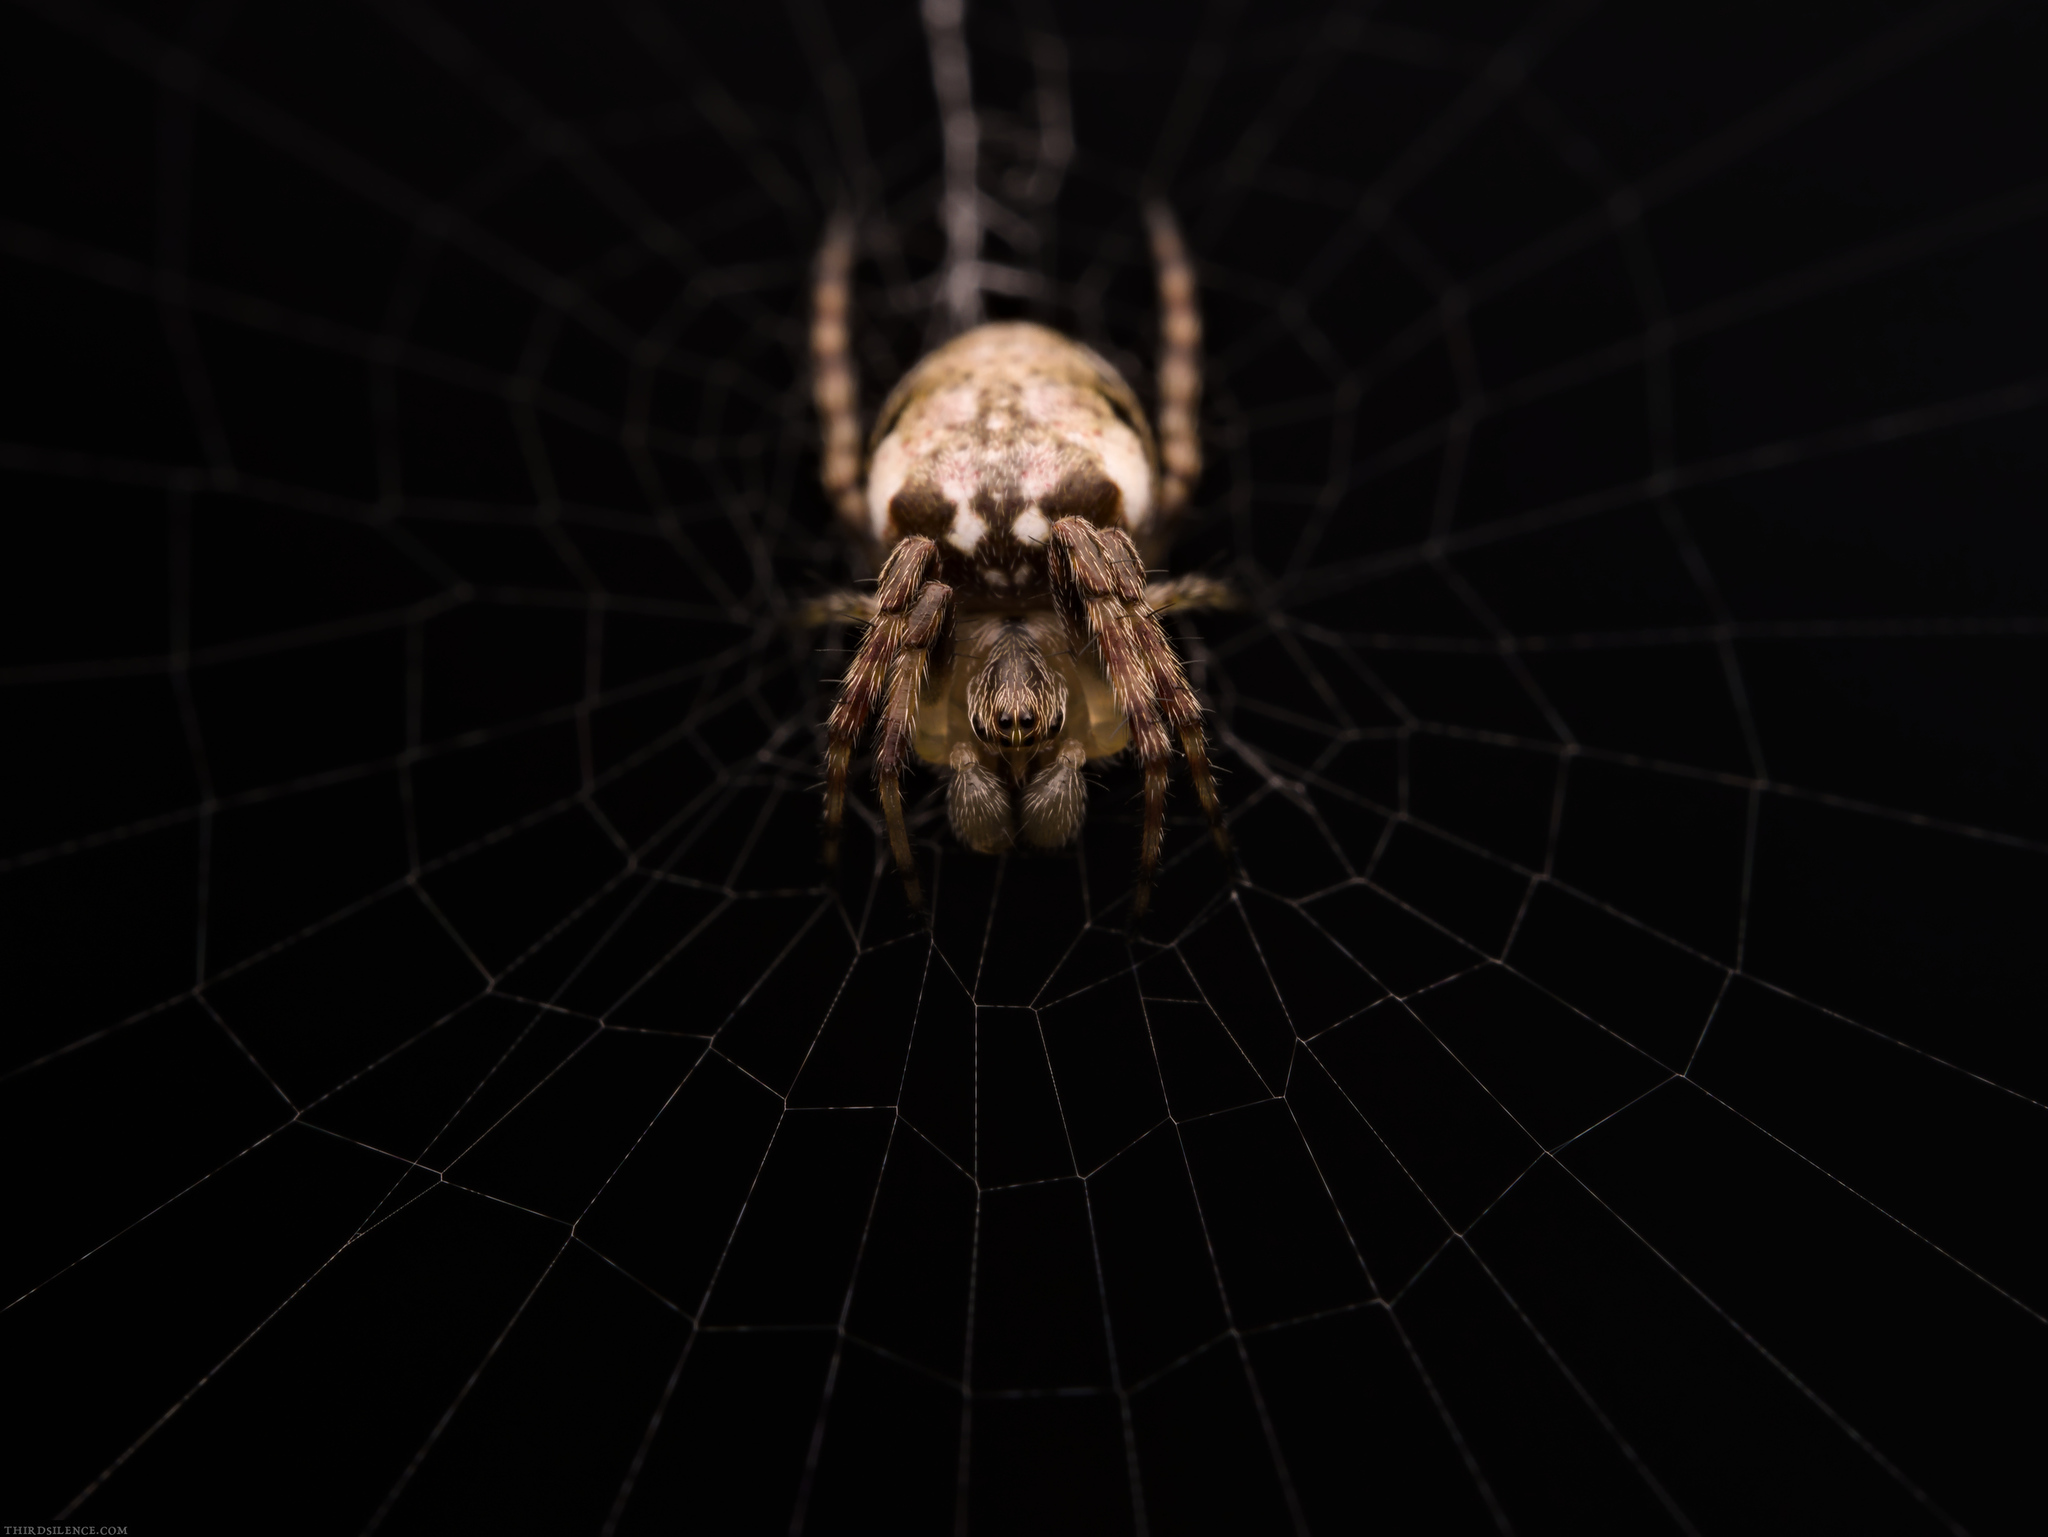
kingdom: Animalia
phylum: Arthropoda
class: Arachnida
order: Araneae
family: Araneidae
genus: Plebs
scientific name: Plebs eburnus
